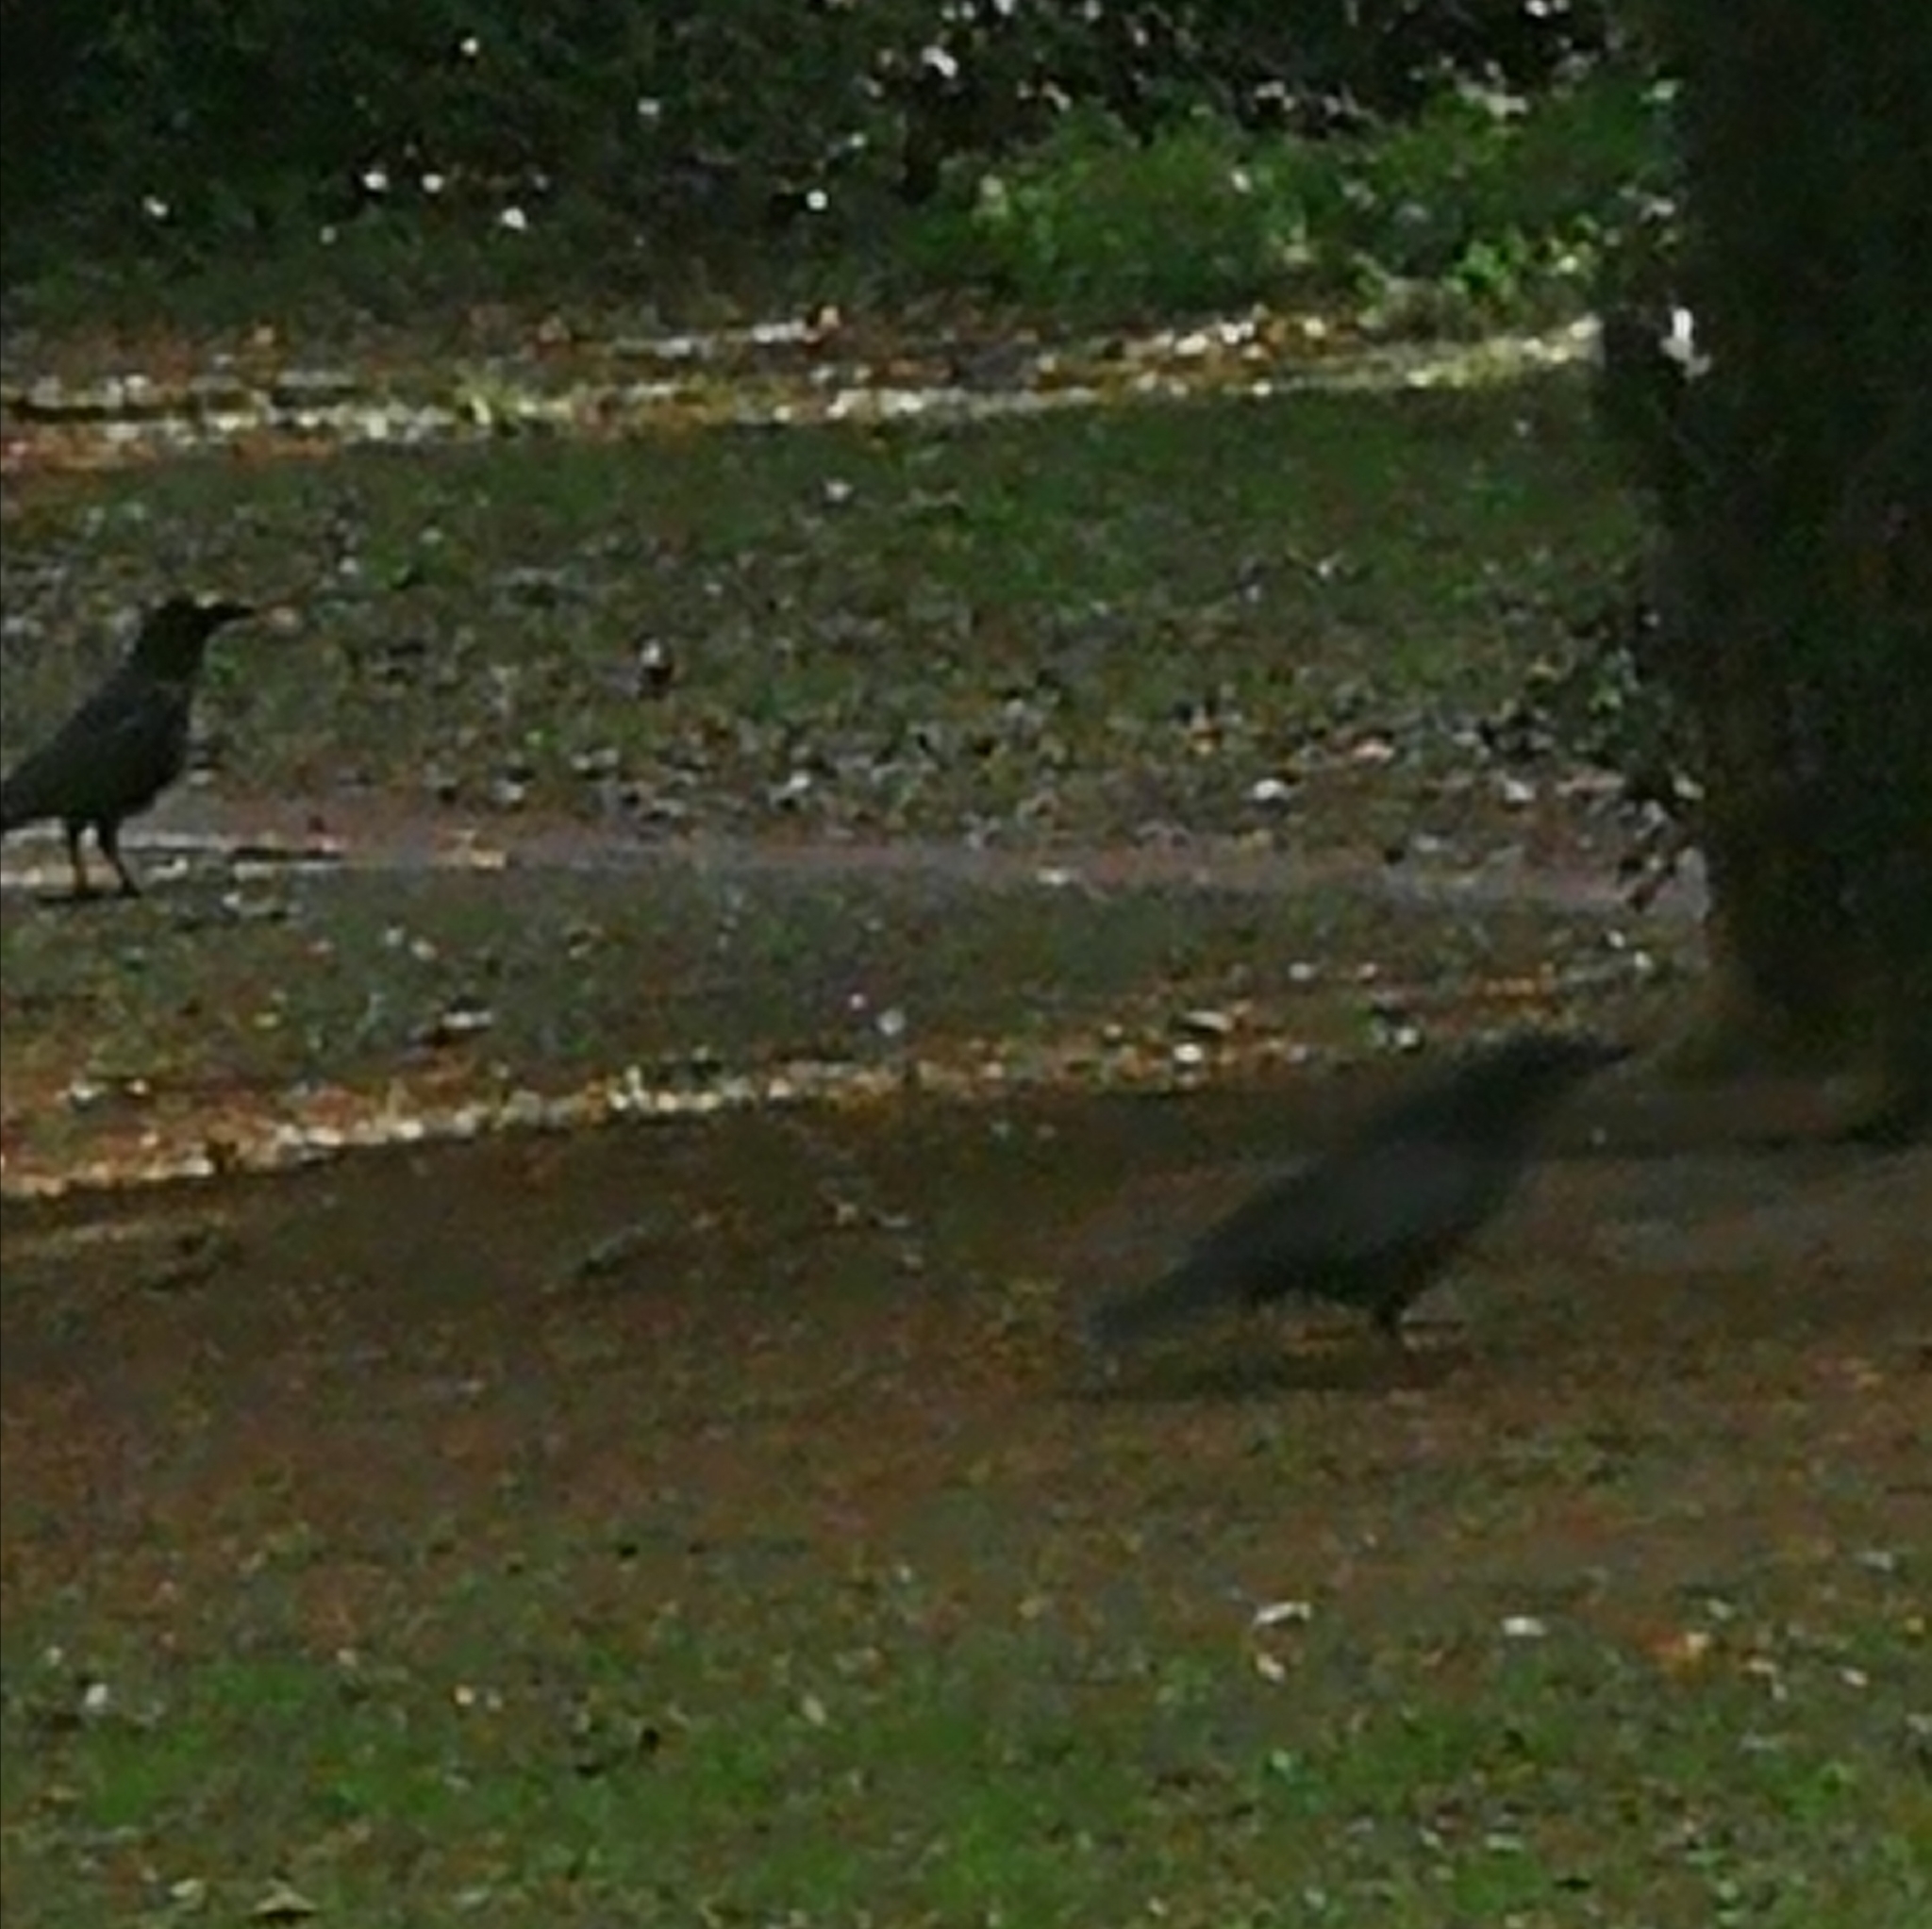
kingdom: Animalia
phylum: Chordata
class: Aves
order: Passeriformes
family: Corvidae
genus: Corvus
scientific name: Corvus corone
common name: Carrion crow
